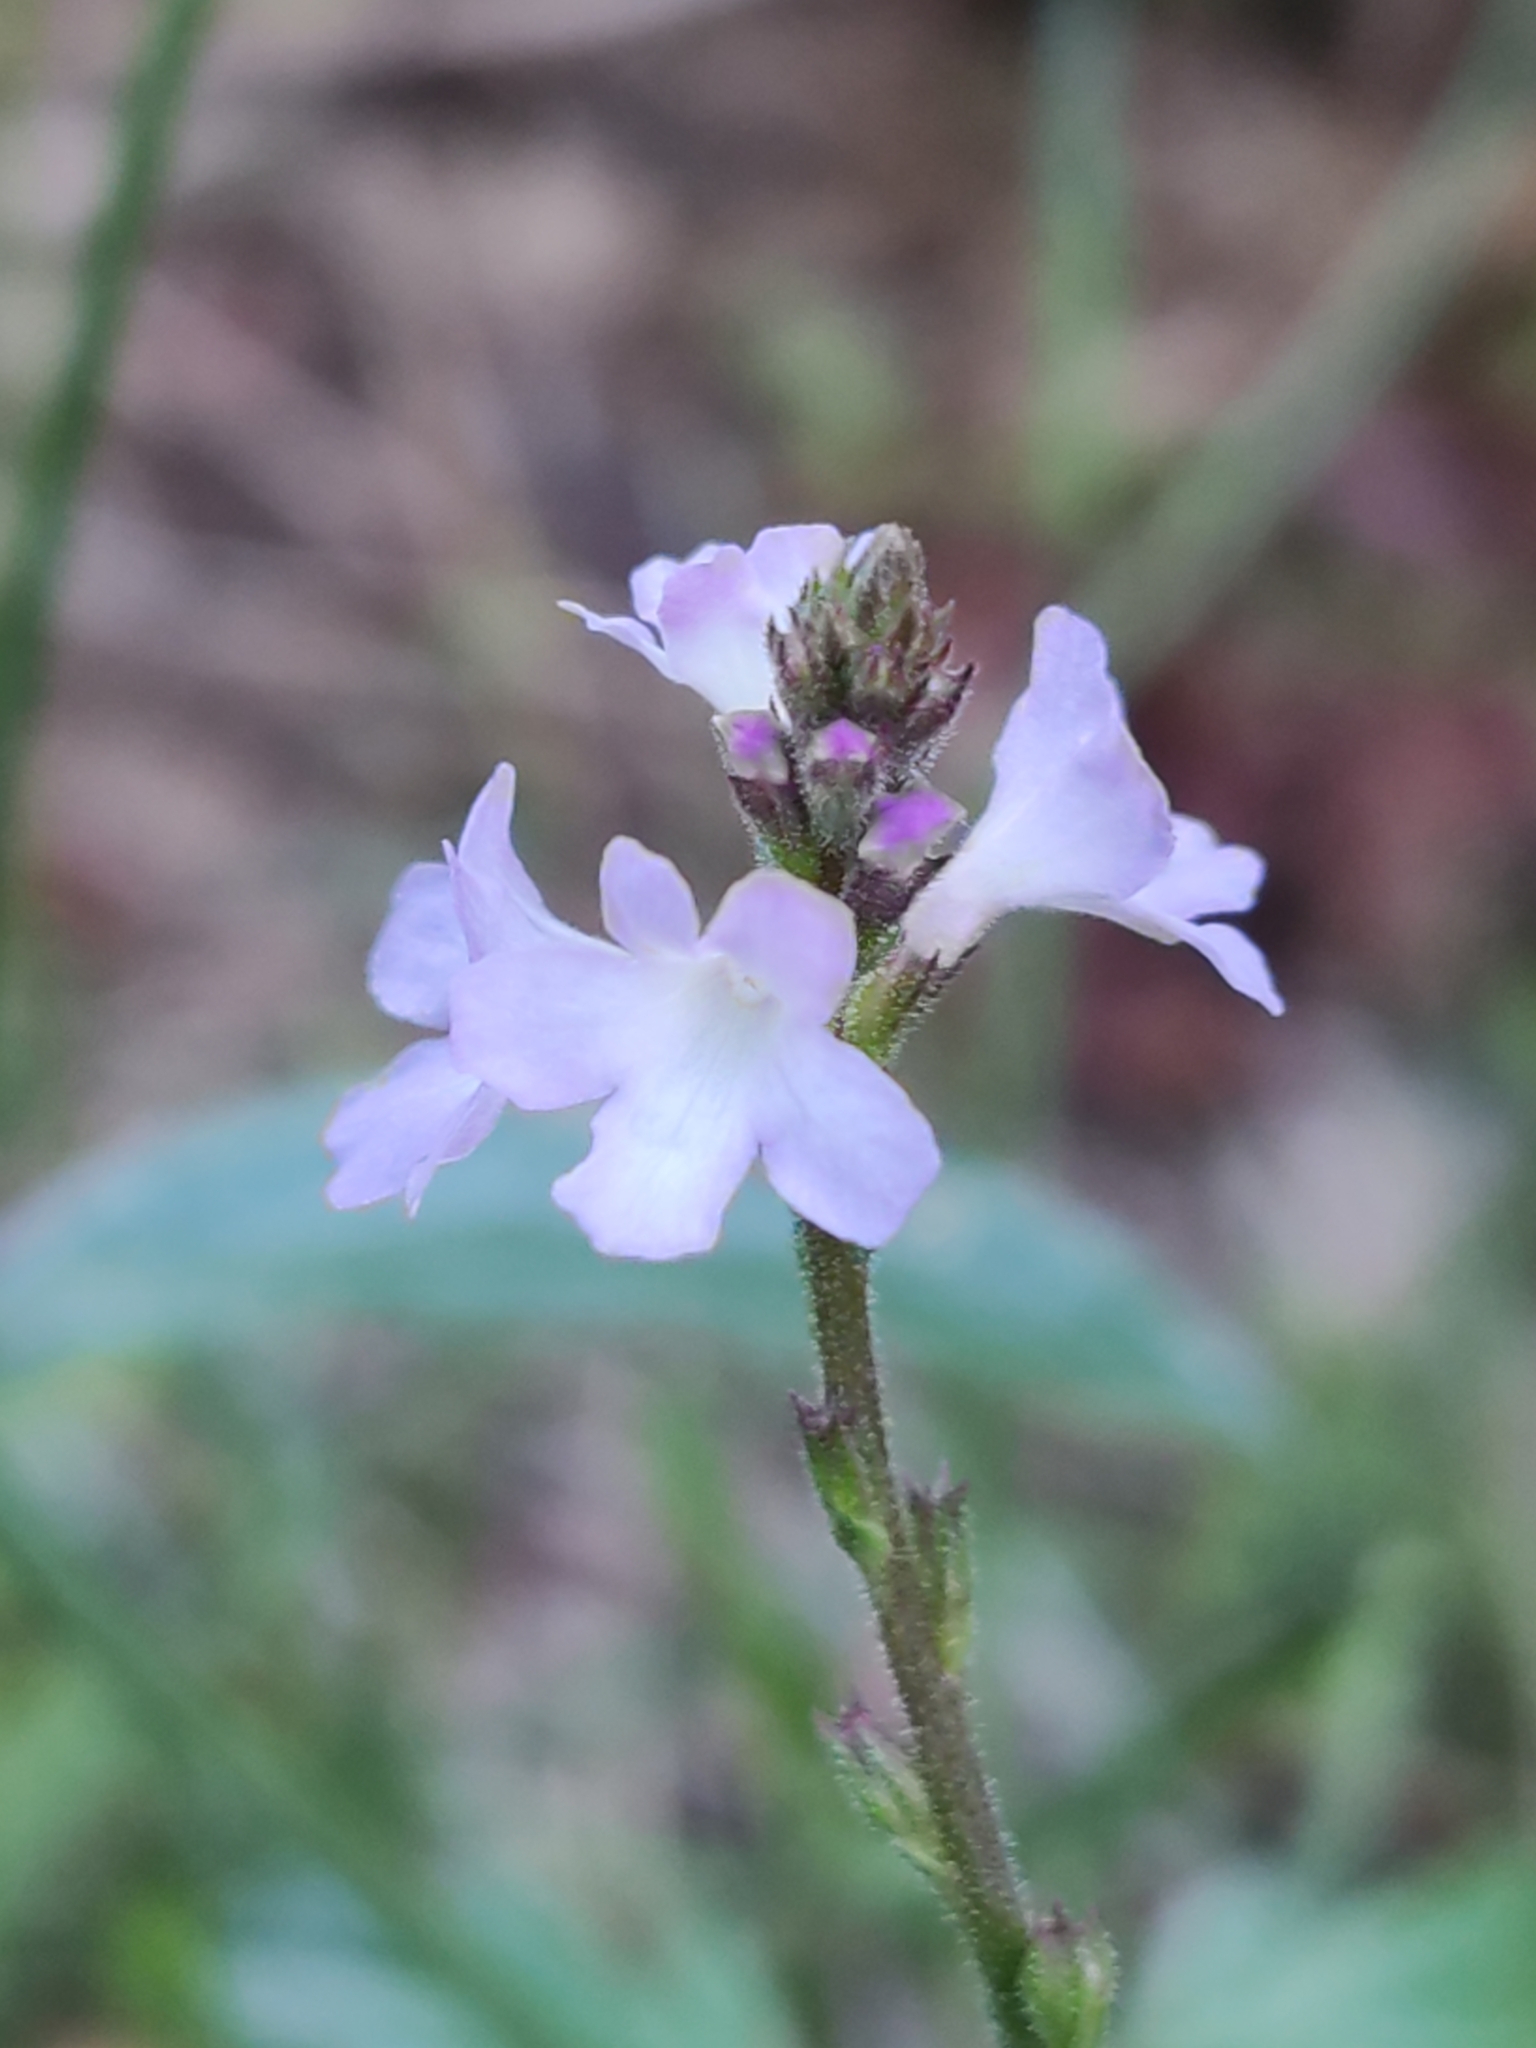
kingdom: Plantae
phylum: Tracheophyta
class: Magnoliopsida
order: Lamiales
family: Verbenaceae
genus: Verbena
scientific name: Verbena officinalis
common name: Vervain
